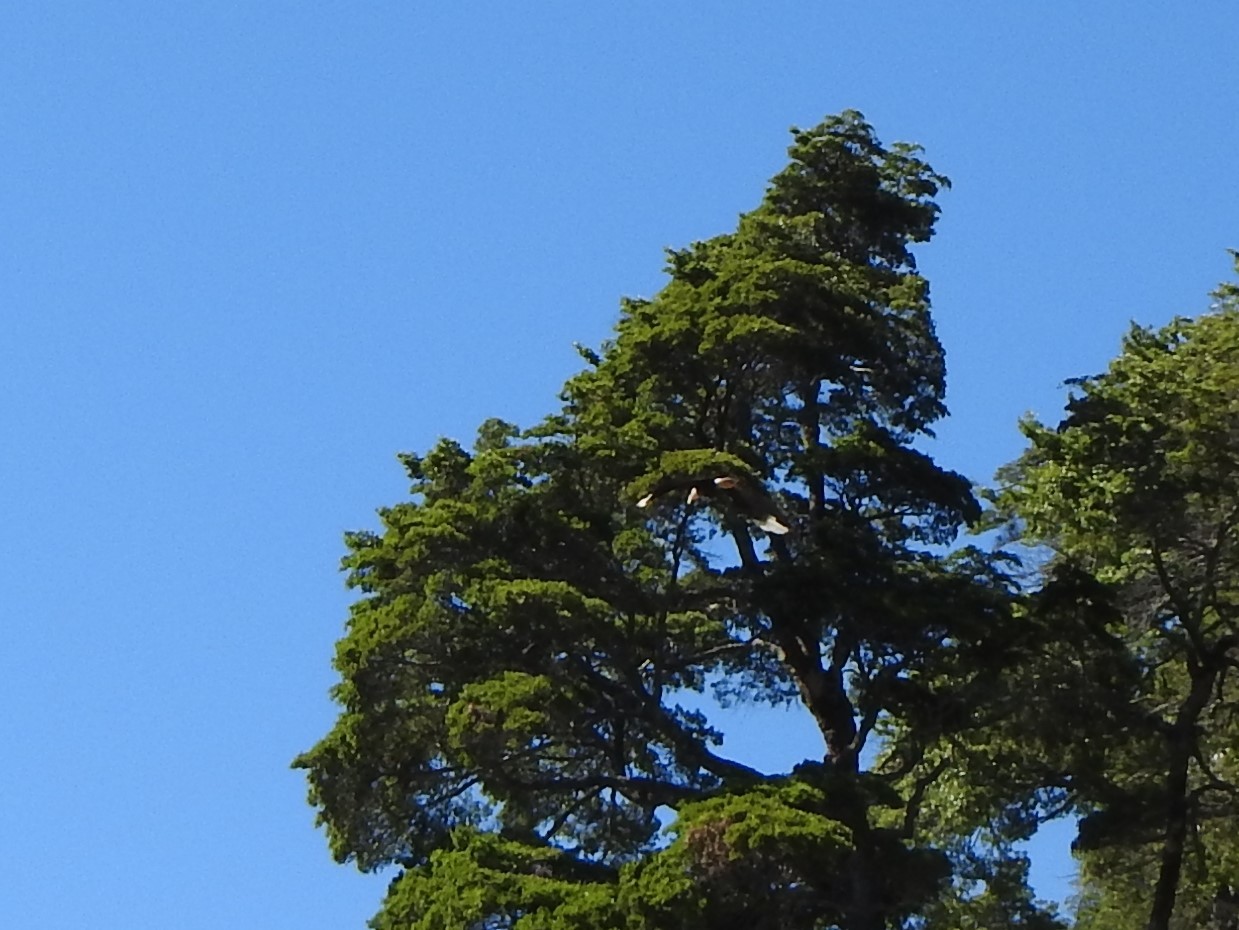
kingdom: Animalia
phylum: Chordata
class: Aves
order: Falconiformes
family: Falconidae
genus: Caracara
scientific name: Caracara plancus
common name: Southern caracara
